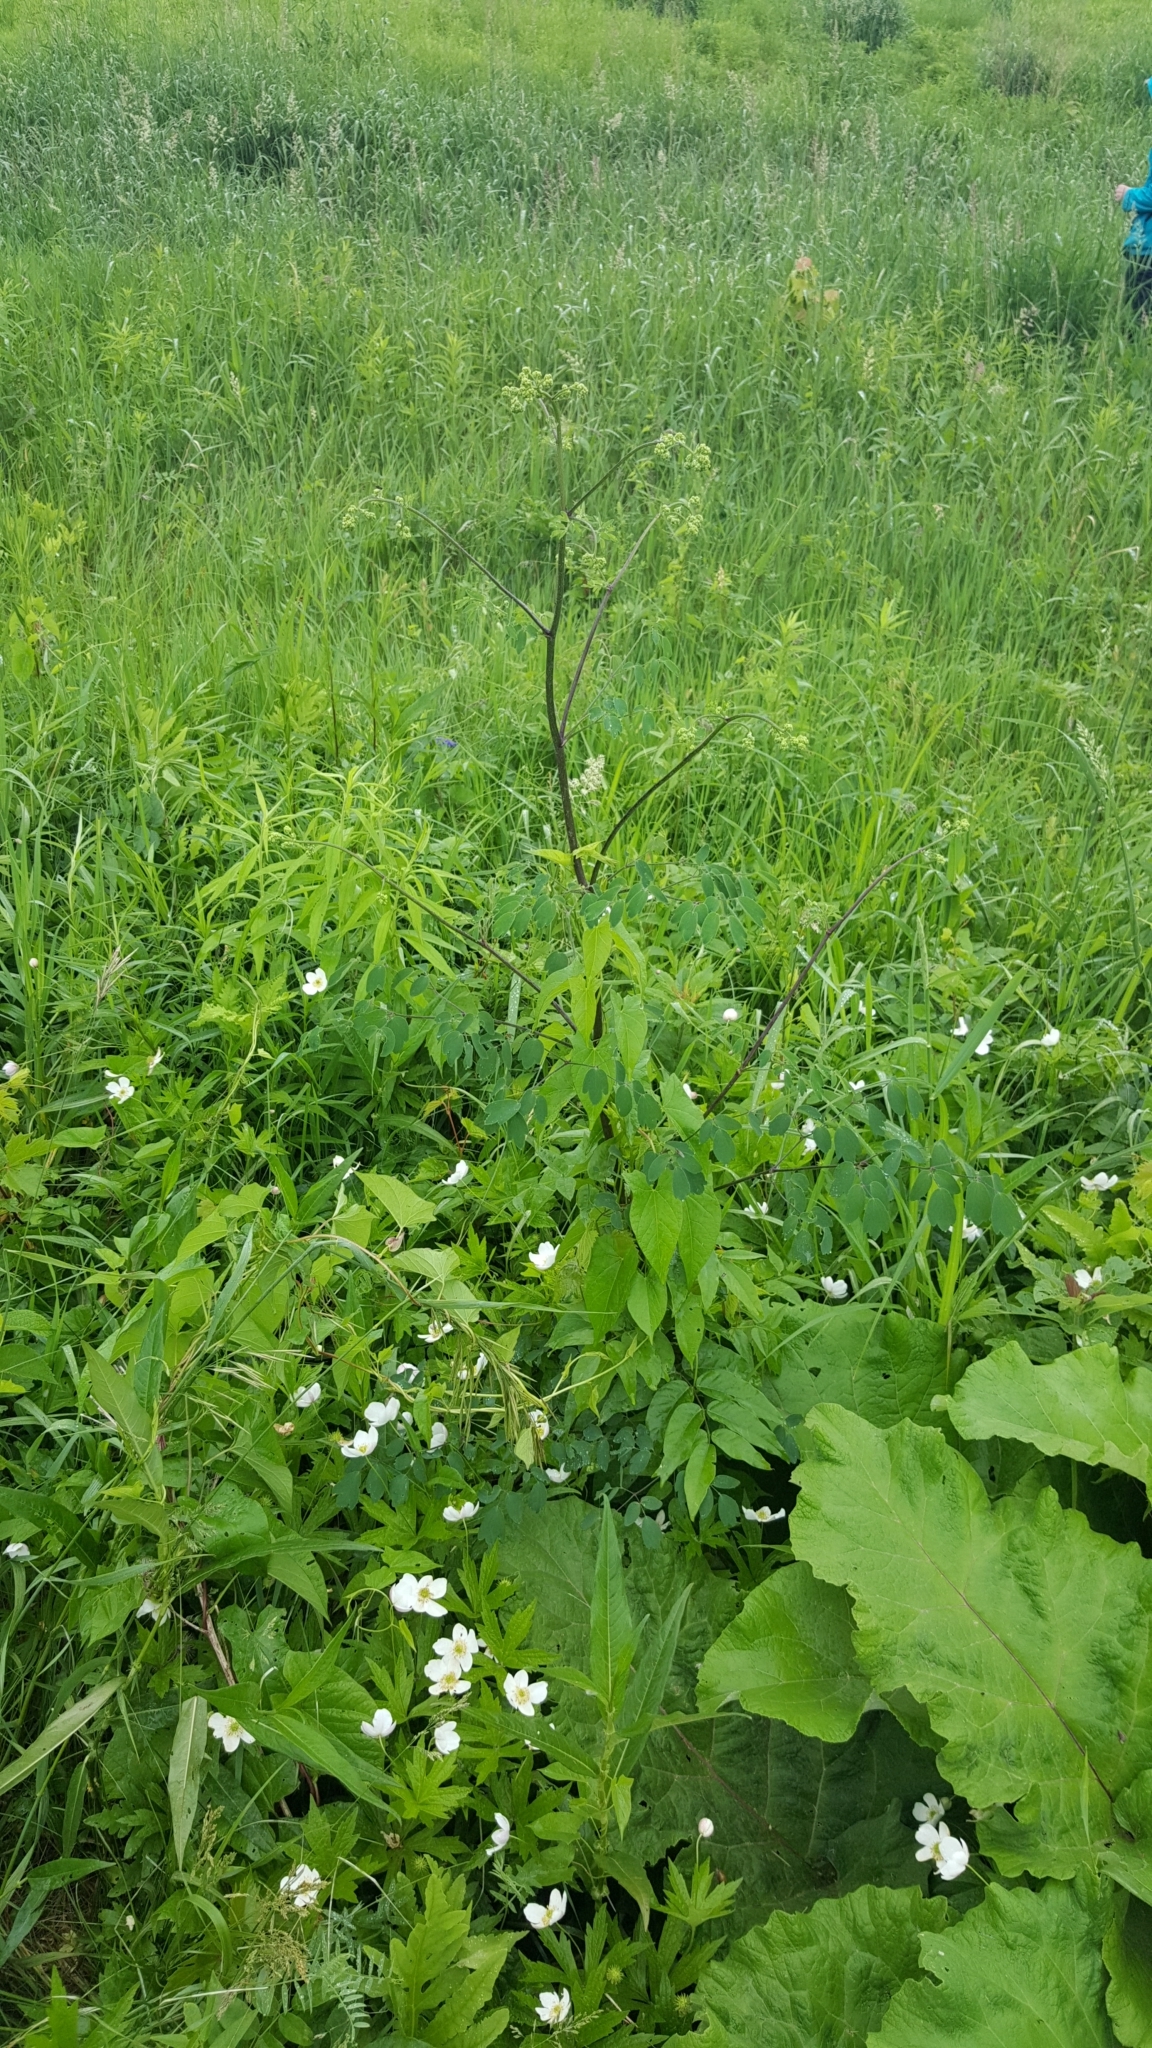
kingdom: Plantae
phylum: Tracheophyta
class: Magnoliopsida
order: Ranunculales
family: Ranunculaceae
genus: Thalictrum
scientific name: Thalictrum pubescens
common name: King-of-the-meadow
